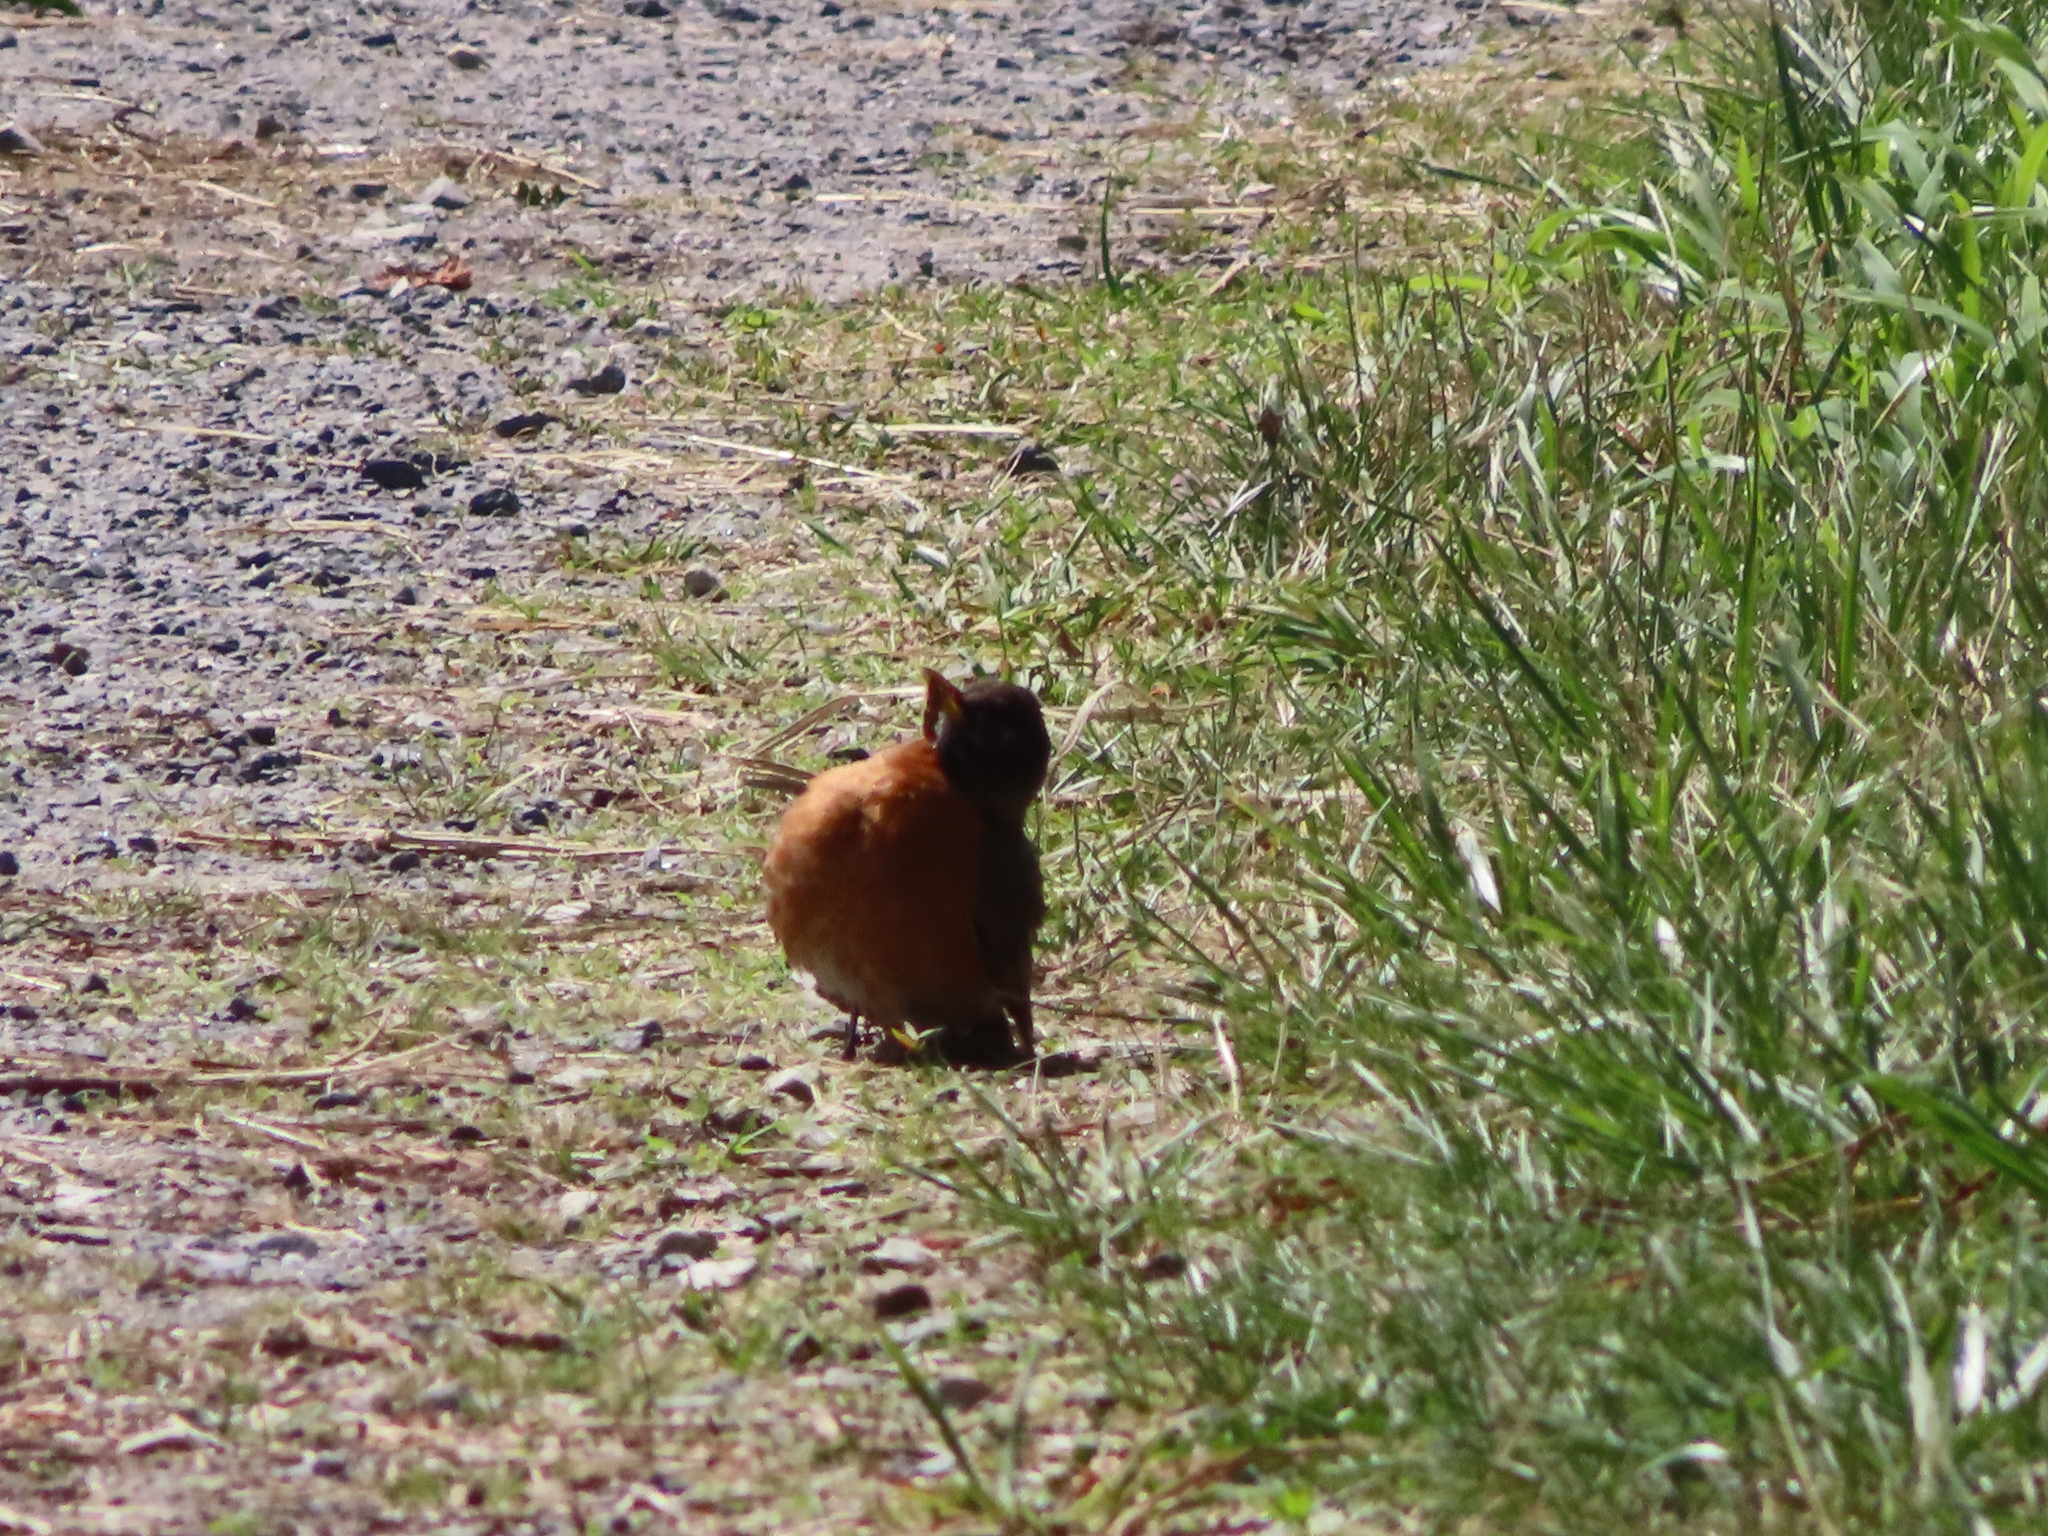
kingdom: Animalia
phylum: Chordata
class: Aves
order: Passeriformes
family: Turdidae
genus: Turdus
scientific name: Turdus migratorius
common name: American robin
